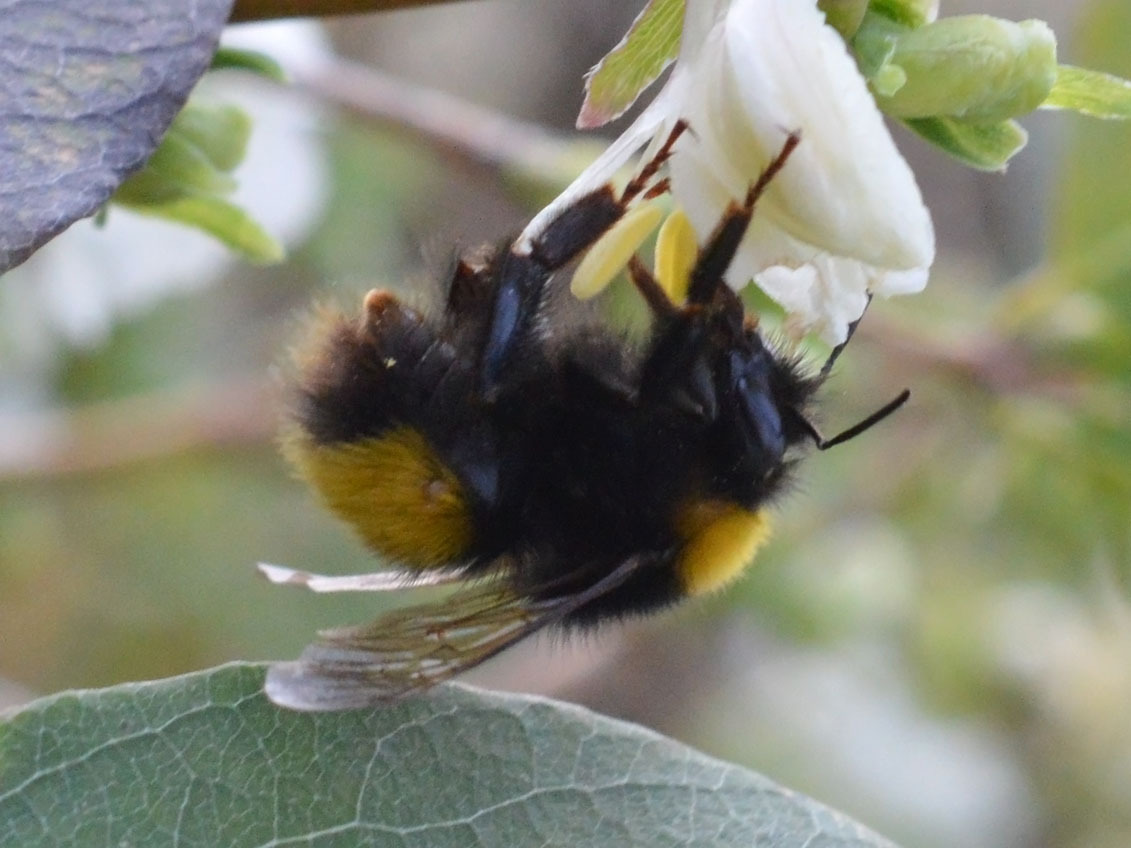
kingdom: Animalia
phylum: Arthropoda
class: Insecta
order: Hymenoptera
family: Apidae
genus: Bombus
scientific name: Bombus haematurus
